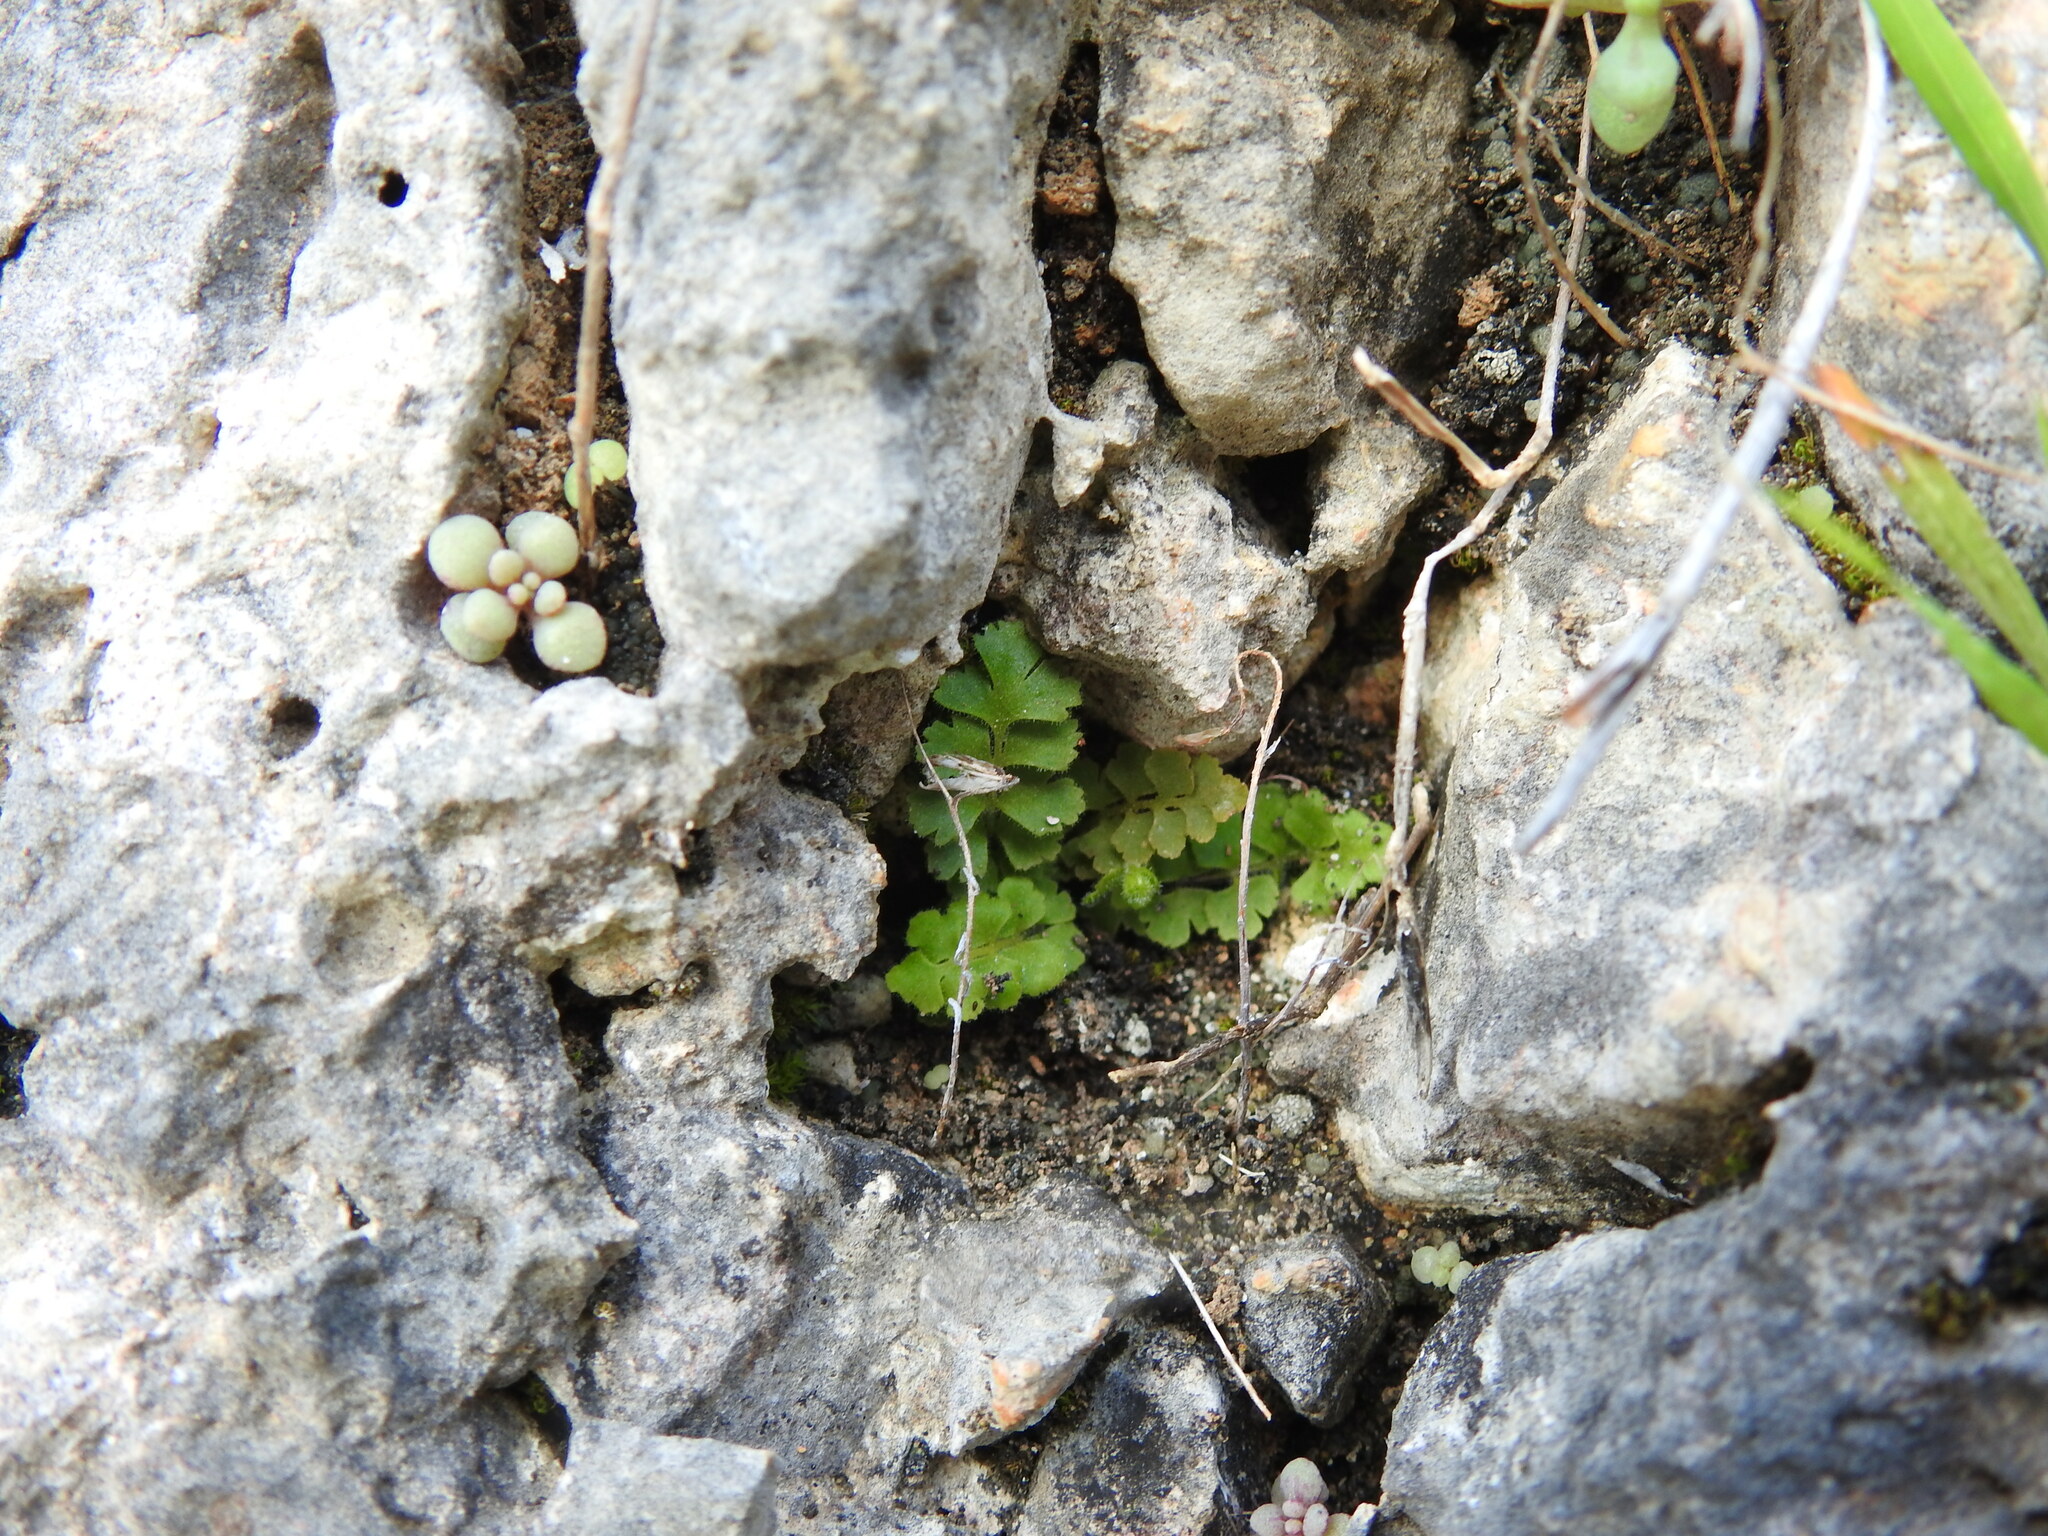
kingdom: Plantae
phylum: Tracheophyta
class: Polypodiopsida
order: Polypodiales
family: Aspleniaceae
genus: Asplenium
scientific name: Asplenium petrarchae
